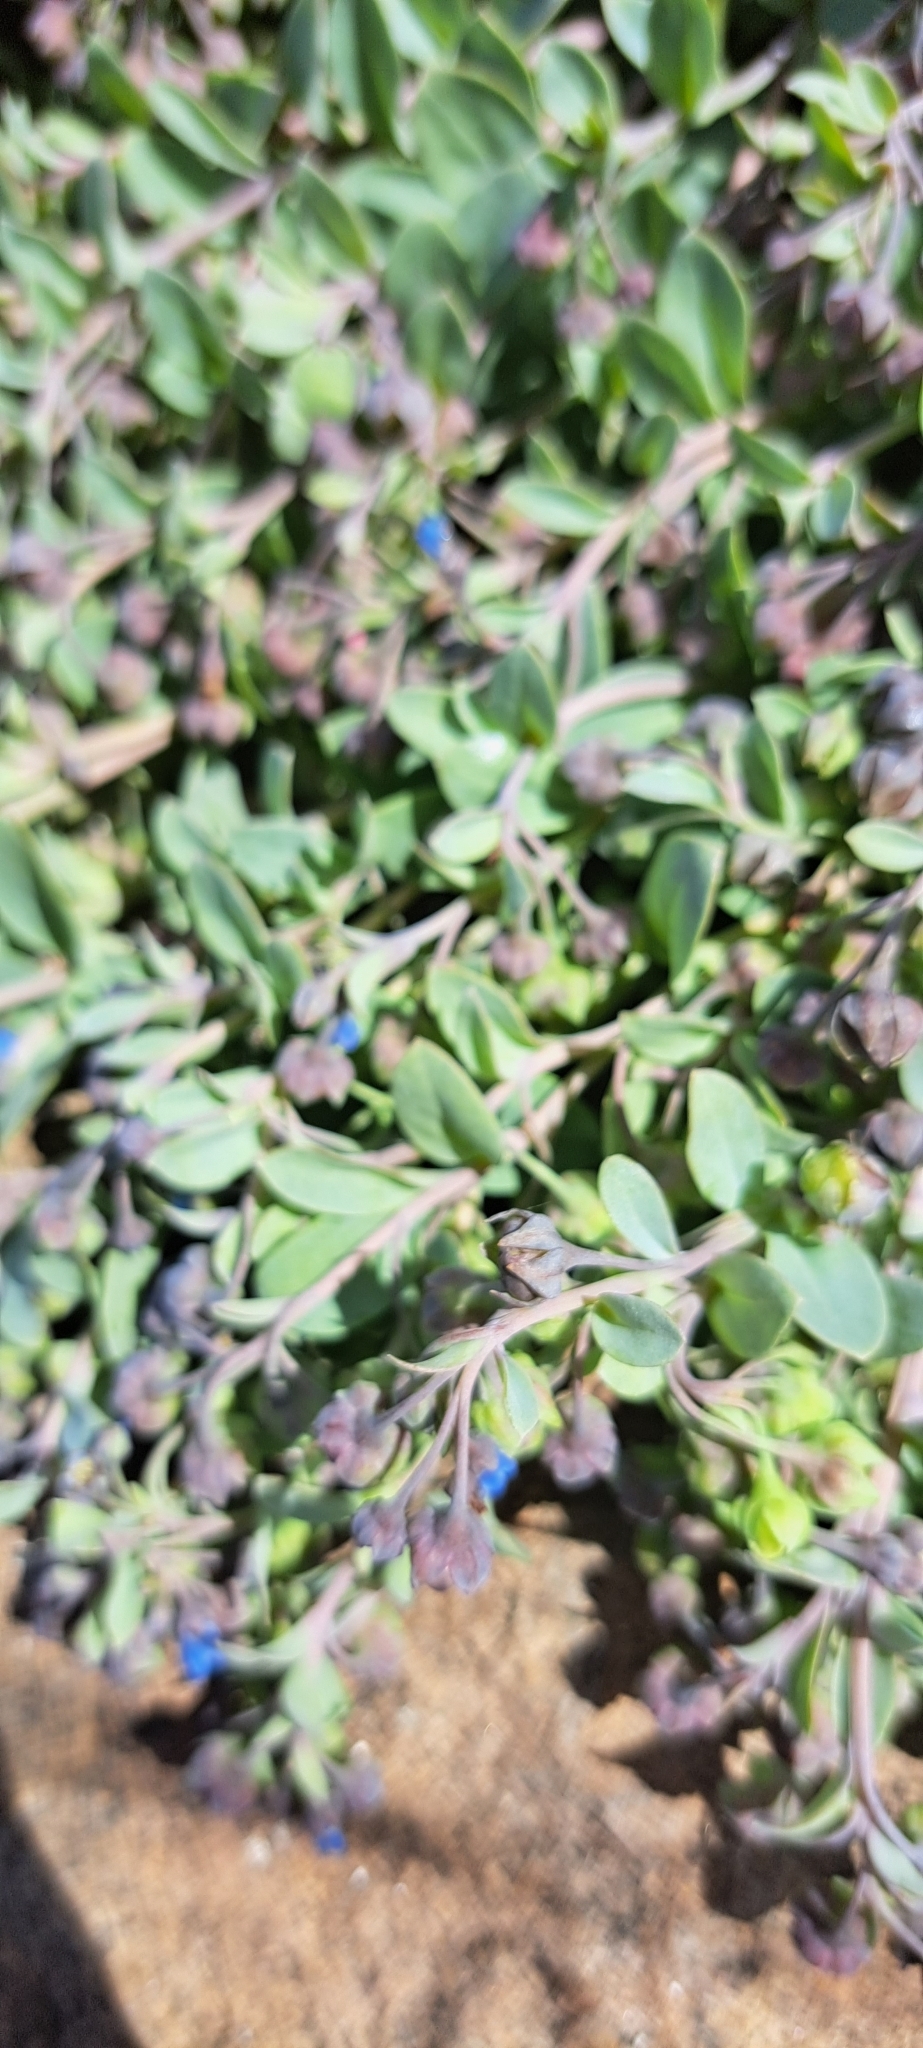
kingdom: Plantae
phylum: Tracheophyta
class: Magnoliopsida
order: Boraginales
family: Boraginaceae
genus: Mertensia
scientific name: Mertensia maritima
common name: Oysterplant
